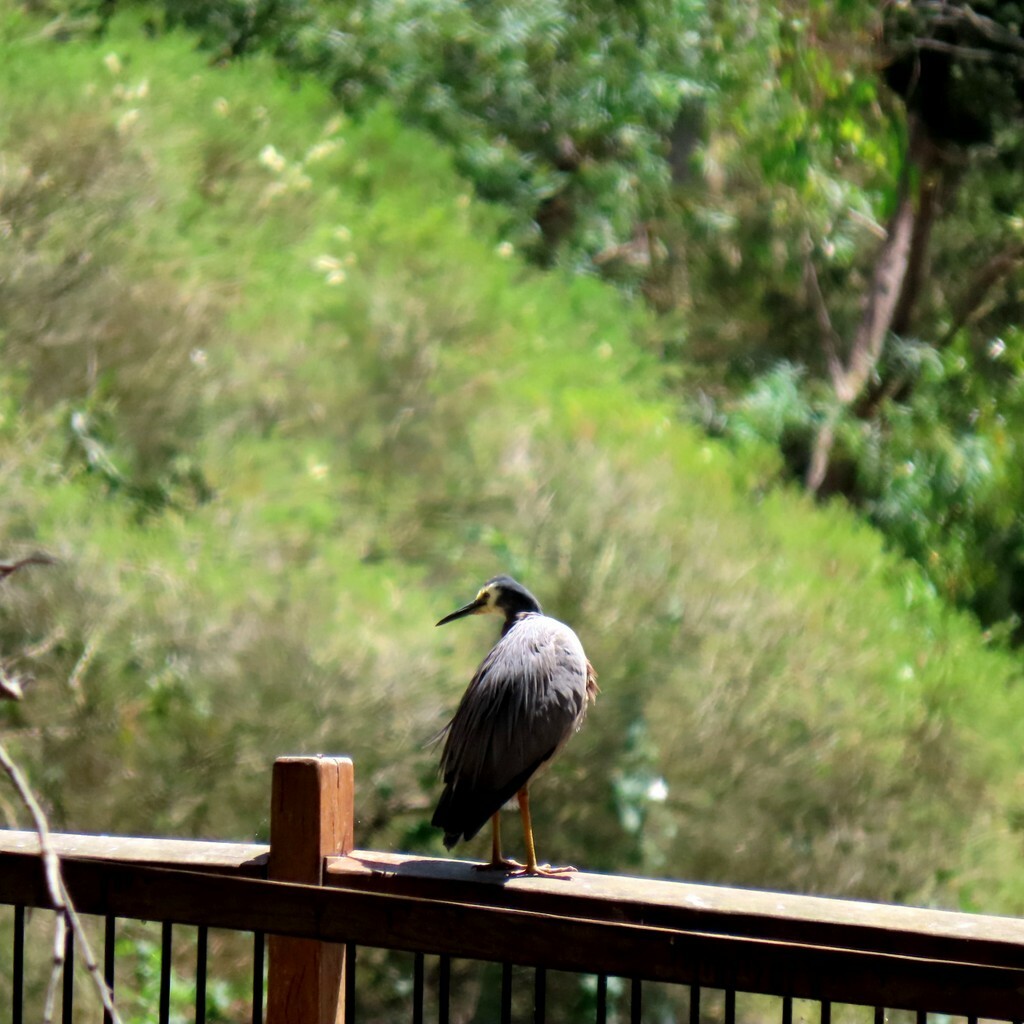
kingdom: Animalia
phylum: Chordata
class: Aves
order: Pelecaniformes
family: Ardeidae
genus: Egretta
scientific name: Egretta novaehollandiae
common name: White-faced heron
